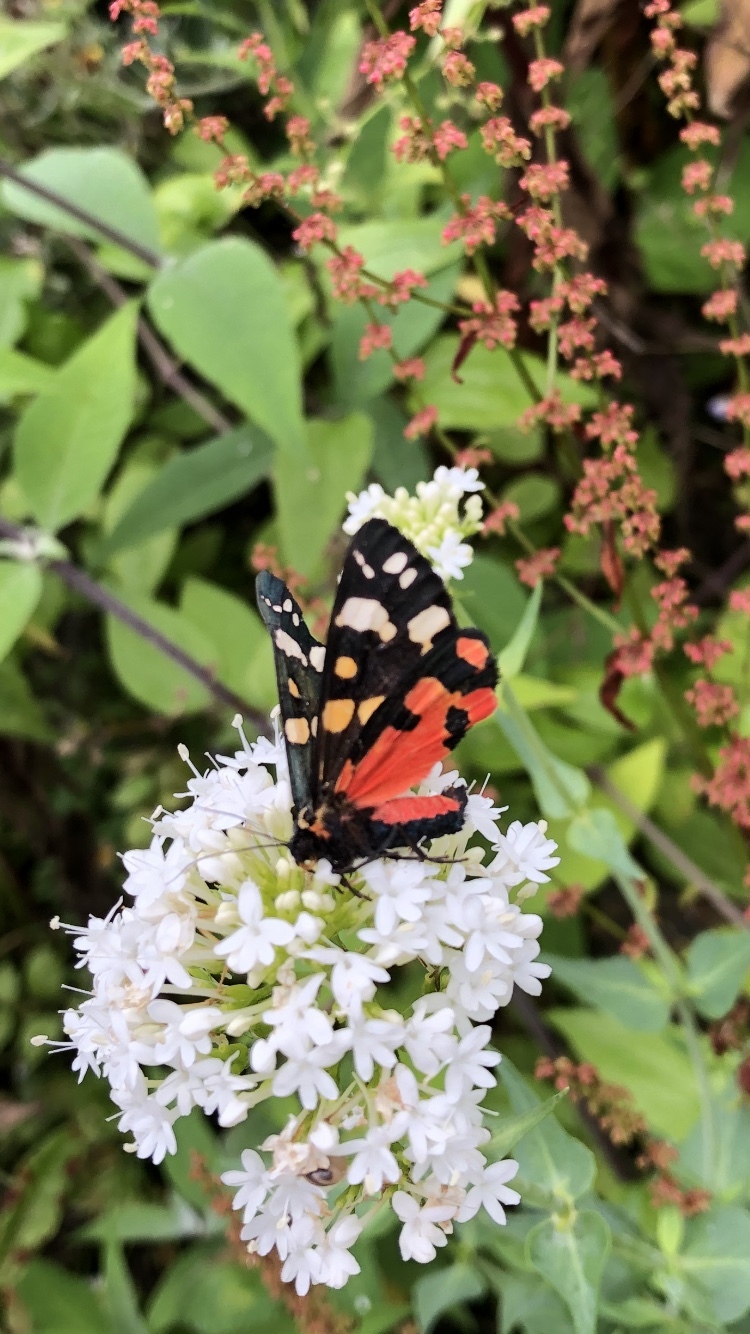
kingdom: Animalia
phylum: Arthropoda
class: Insecta
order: Lepidoptera
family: Erebidae
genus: Callimorpha
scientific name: Callimorpha dominula
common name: Scarlet tiger
